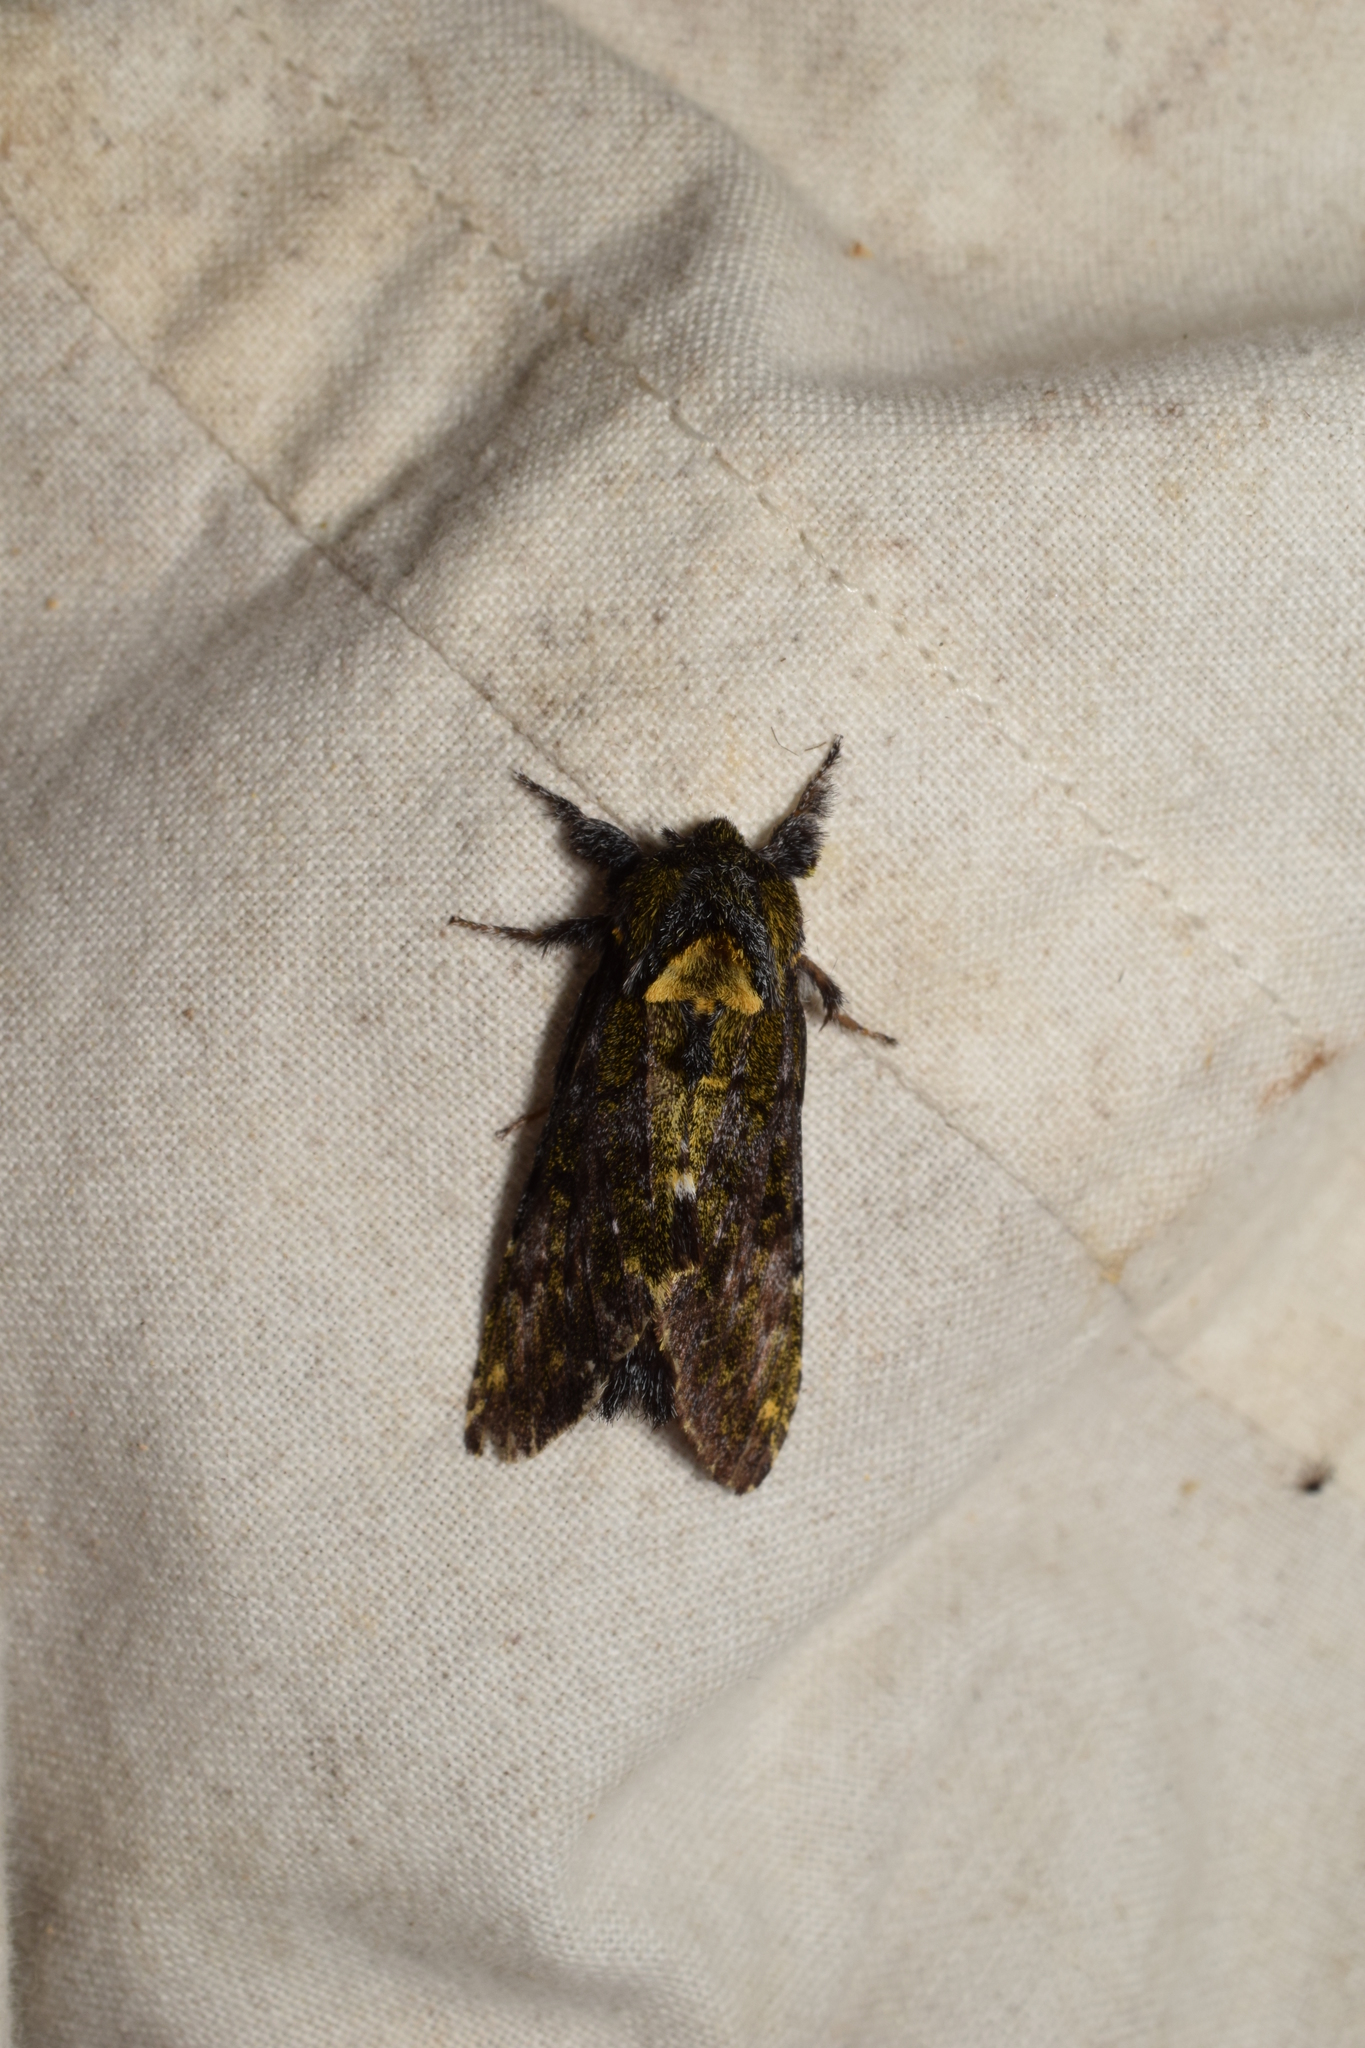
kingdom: Animalia
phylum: Arthropoda
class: Insecta
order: Lepidoptera
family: Notodontidae
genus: Zaranga
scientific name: Zaranga permagna
